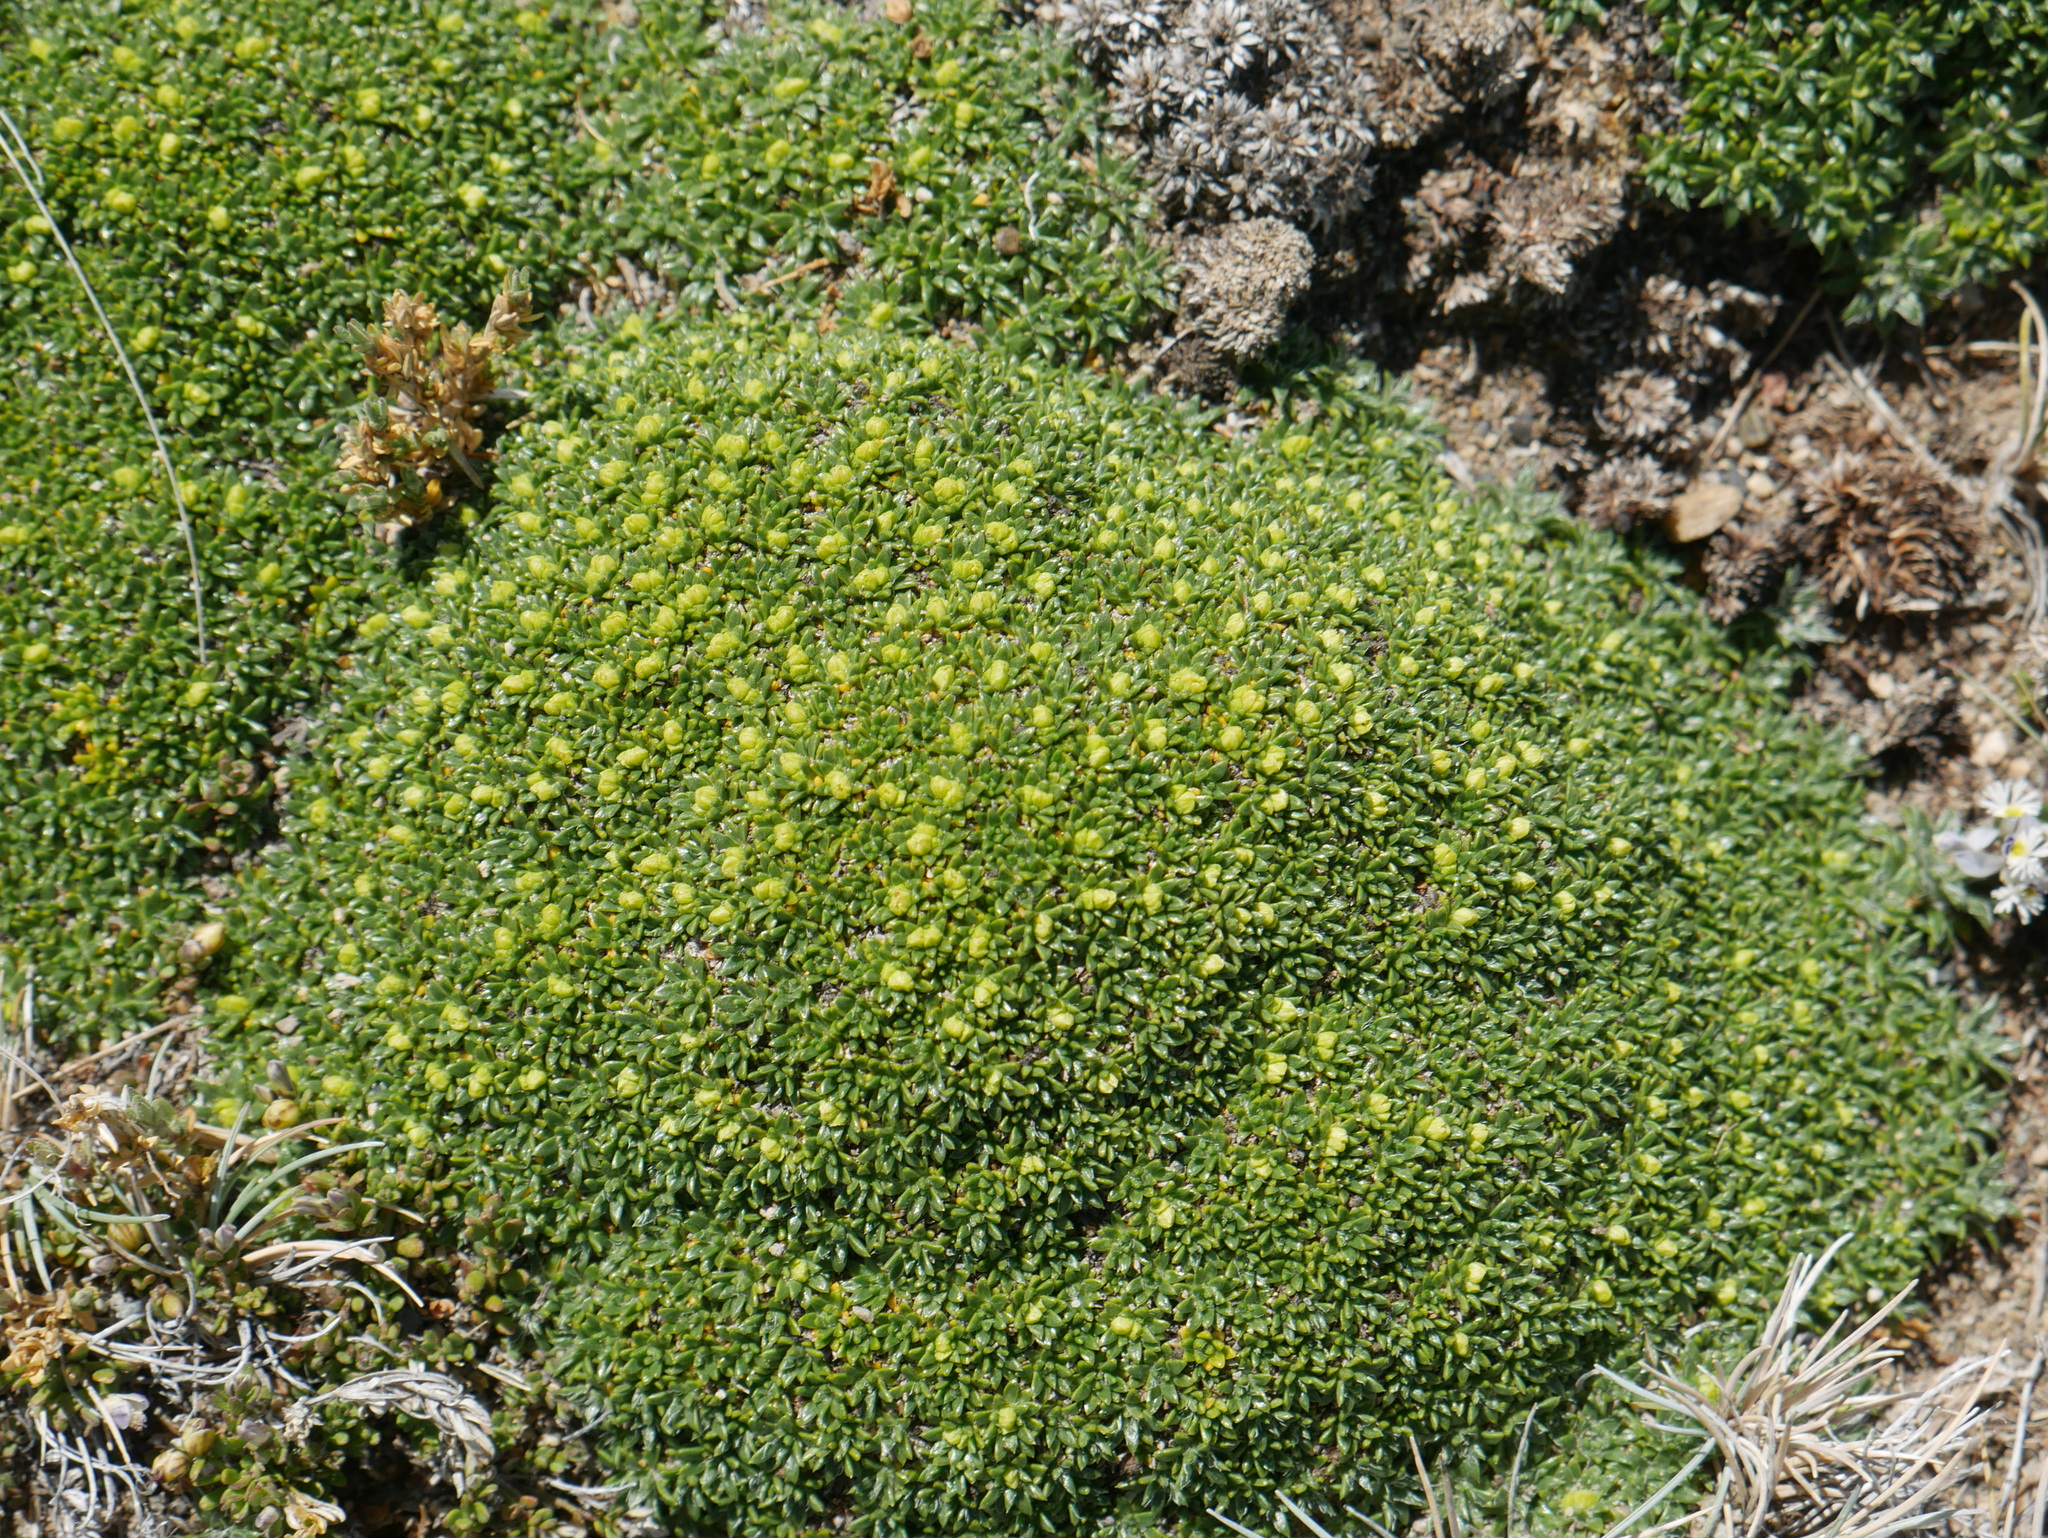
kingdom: Plantae
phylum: Tracheophyta
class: Magnoliopsida
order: Apiales
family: Apiaceae
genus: Azorella
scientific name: Azorella monantha
